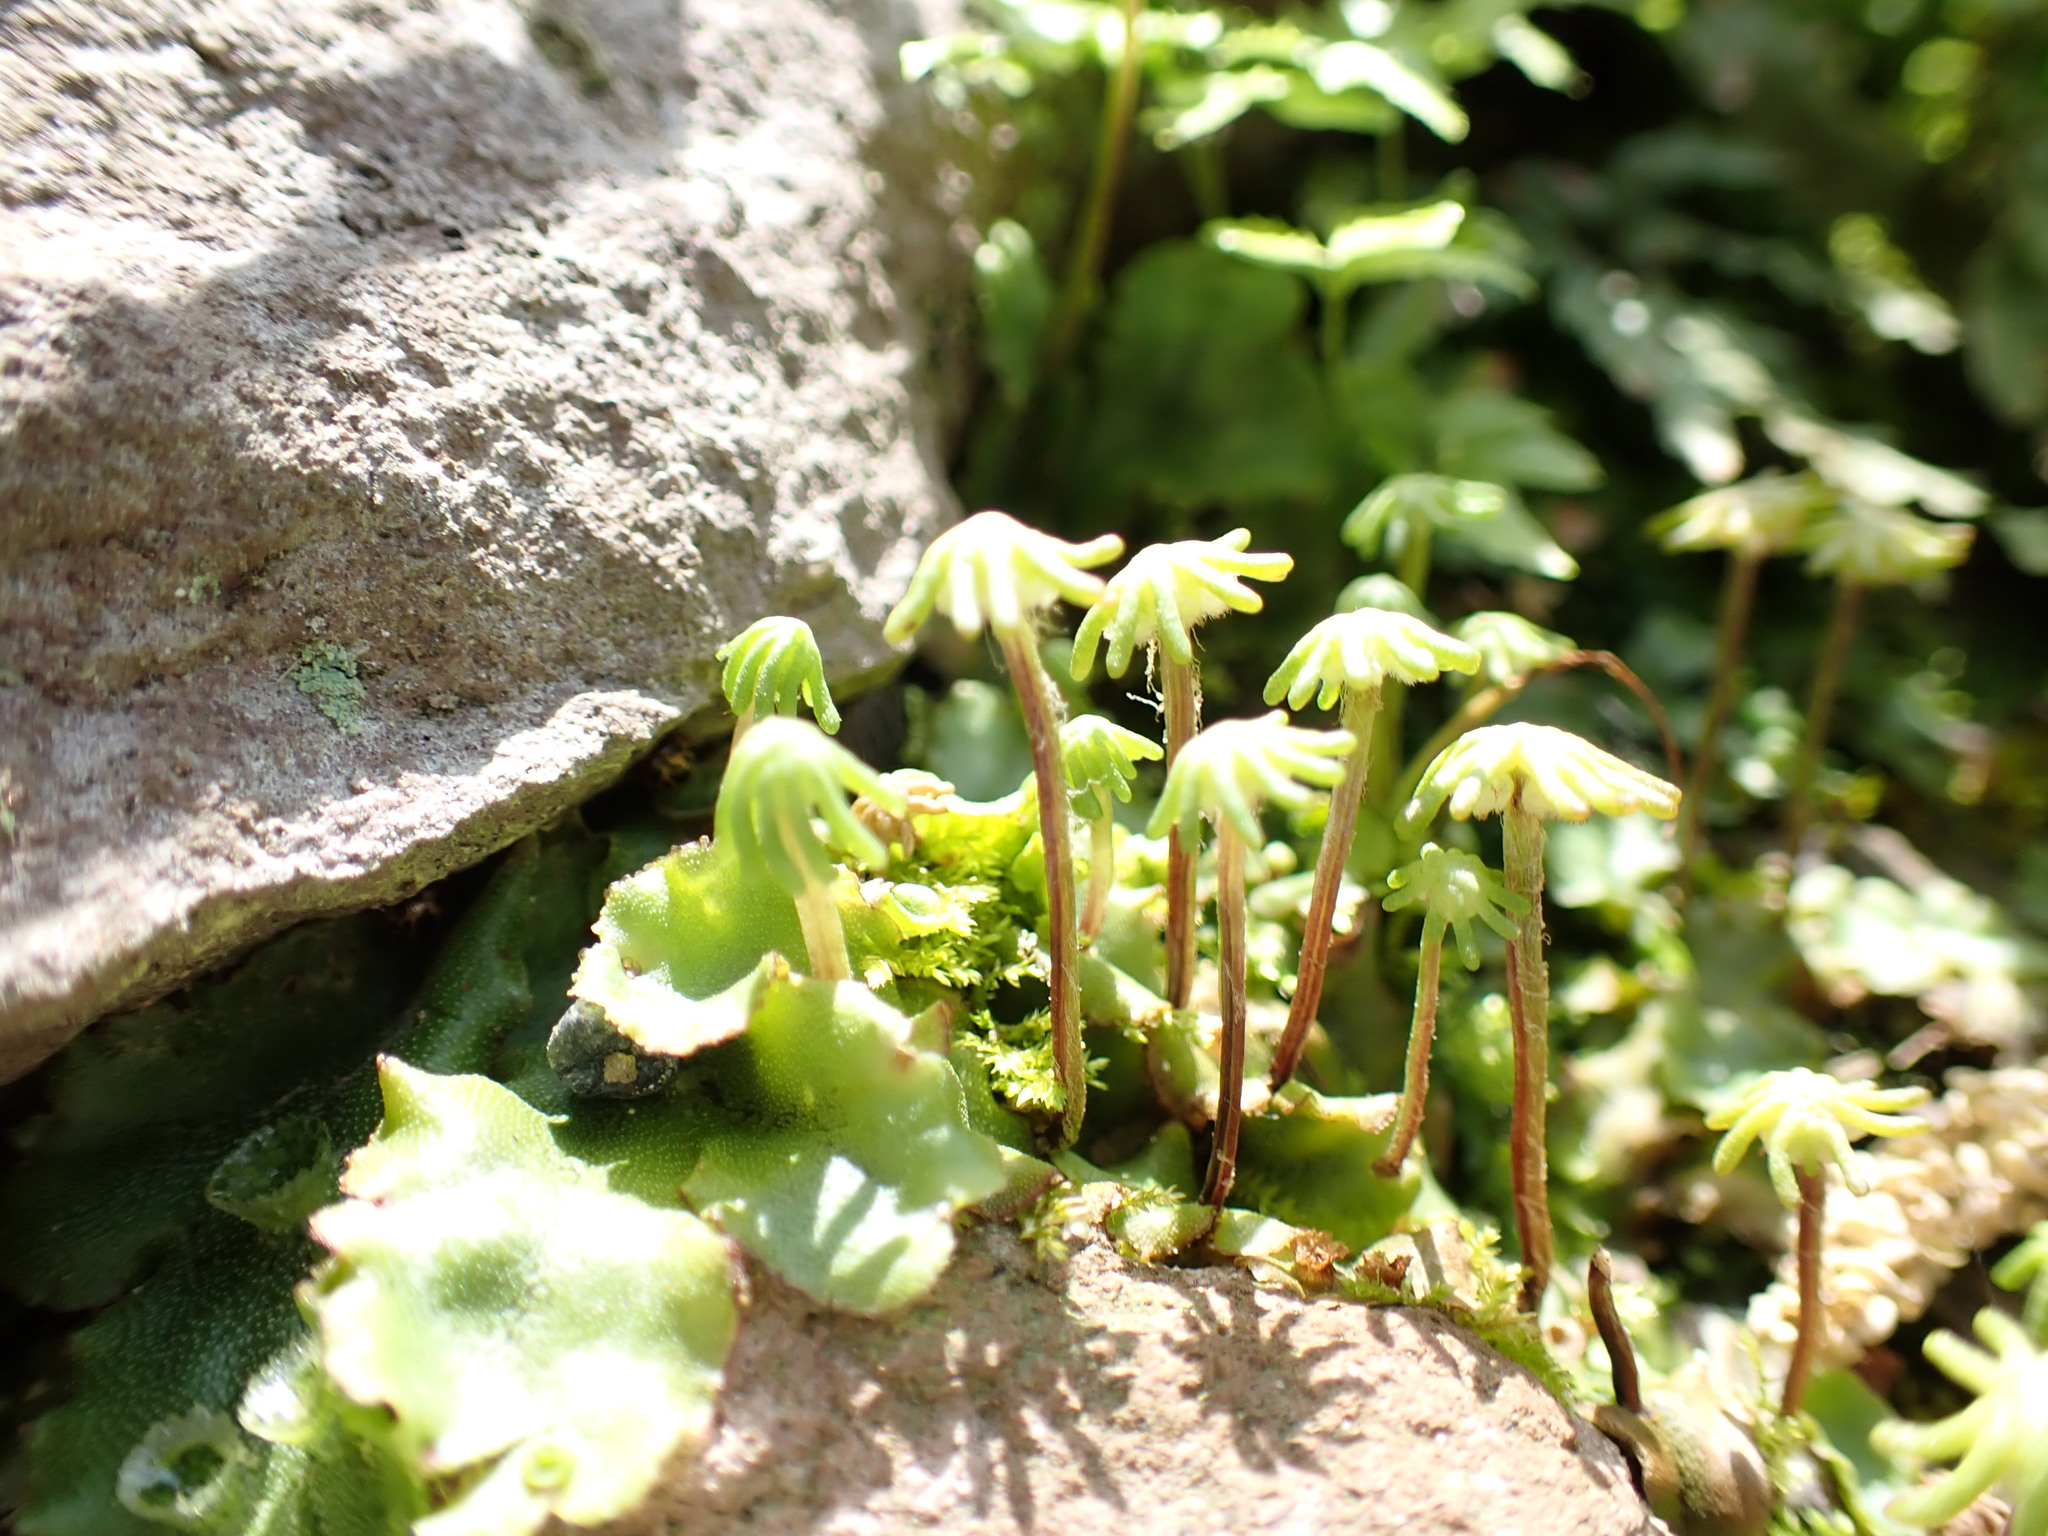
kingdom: Plantae
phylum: Marchantiophyta
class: Marchantiopsida
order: Marchantiales
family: Marchantiaceae
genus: Marchantia
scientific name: Marchantia polymorpha
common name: Common liverwort
